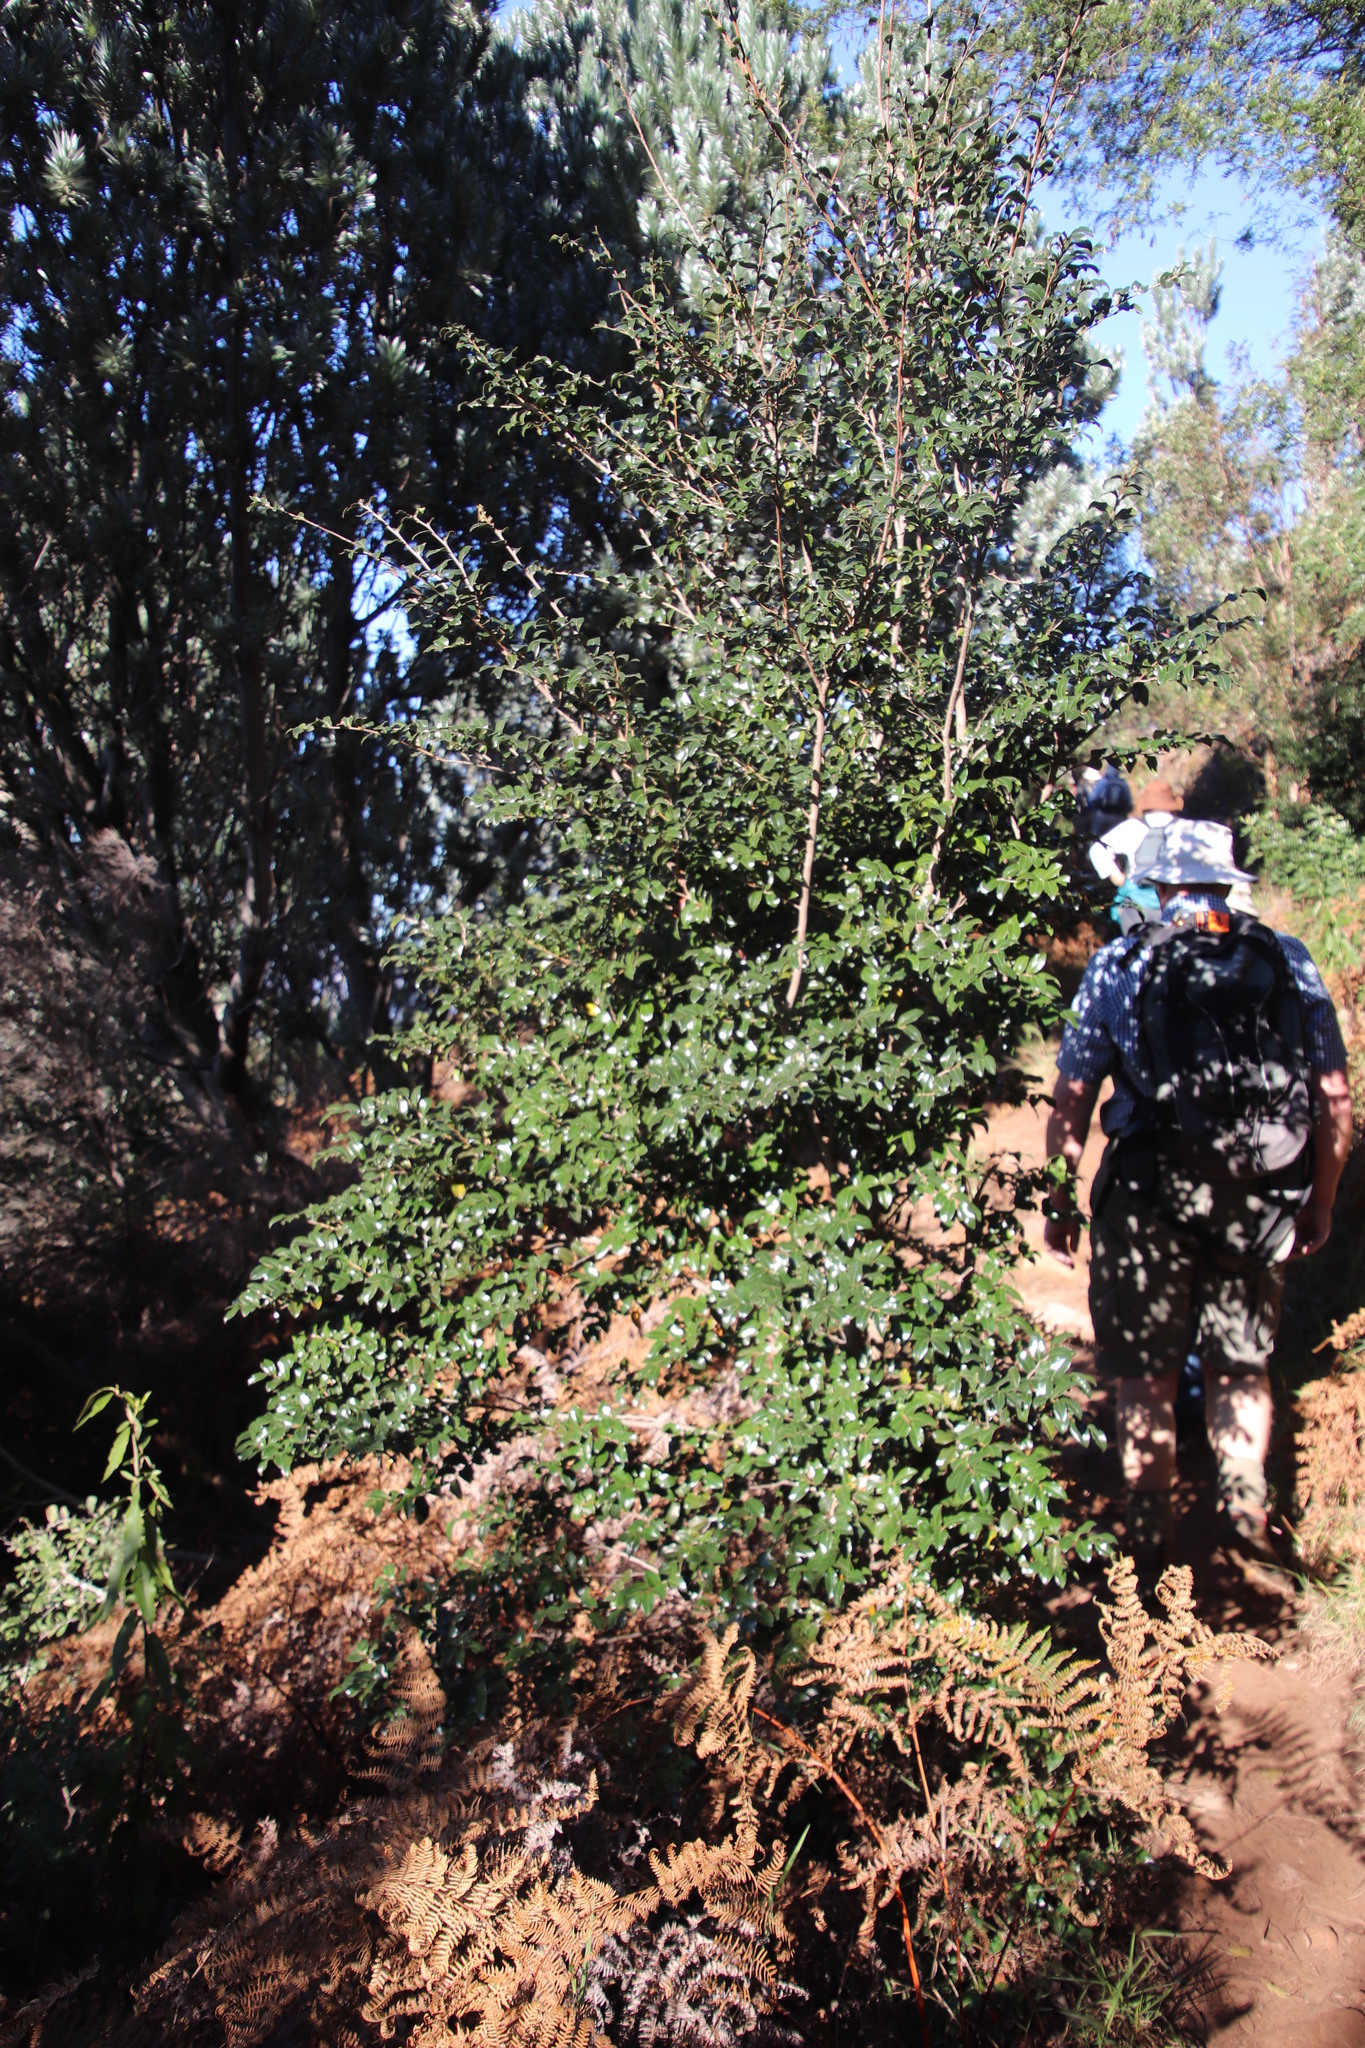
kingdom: Plantae
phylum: Tracheophyta
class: Magnoliopsida
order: Ericales
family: Ebenaceae
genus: Diospyros
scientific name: Diospyros whyteana
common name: Bladder-nut
